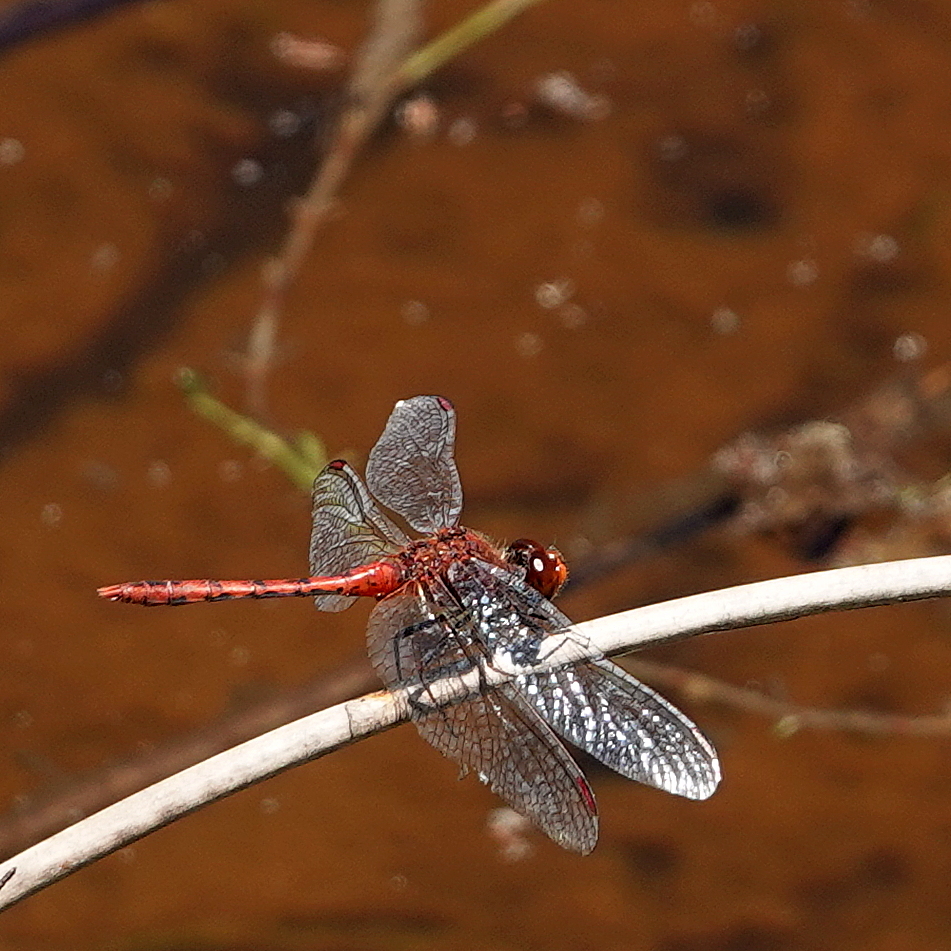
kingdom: Animalia
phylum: Arthropoda
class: Insecta
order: Odonata
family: Libellulidae
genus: Diplacodes
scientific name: Diplacodes bipunctata
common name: Red percher dragonfly
